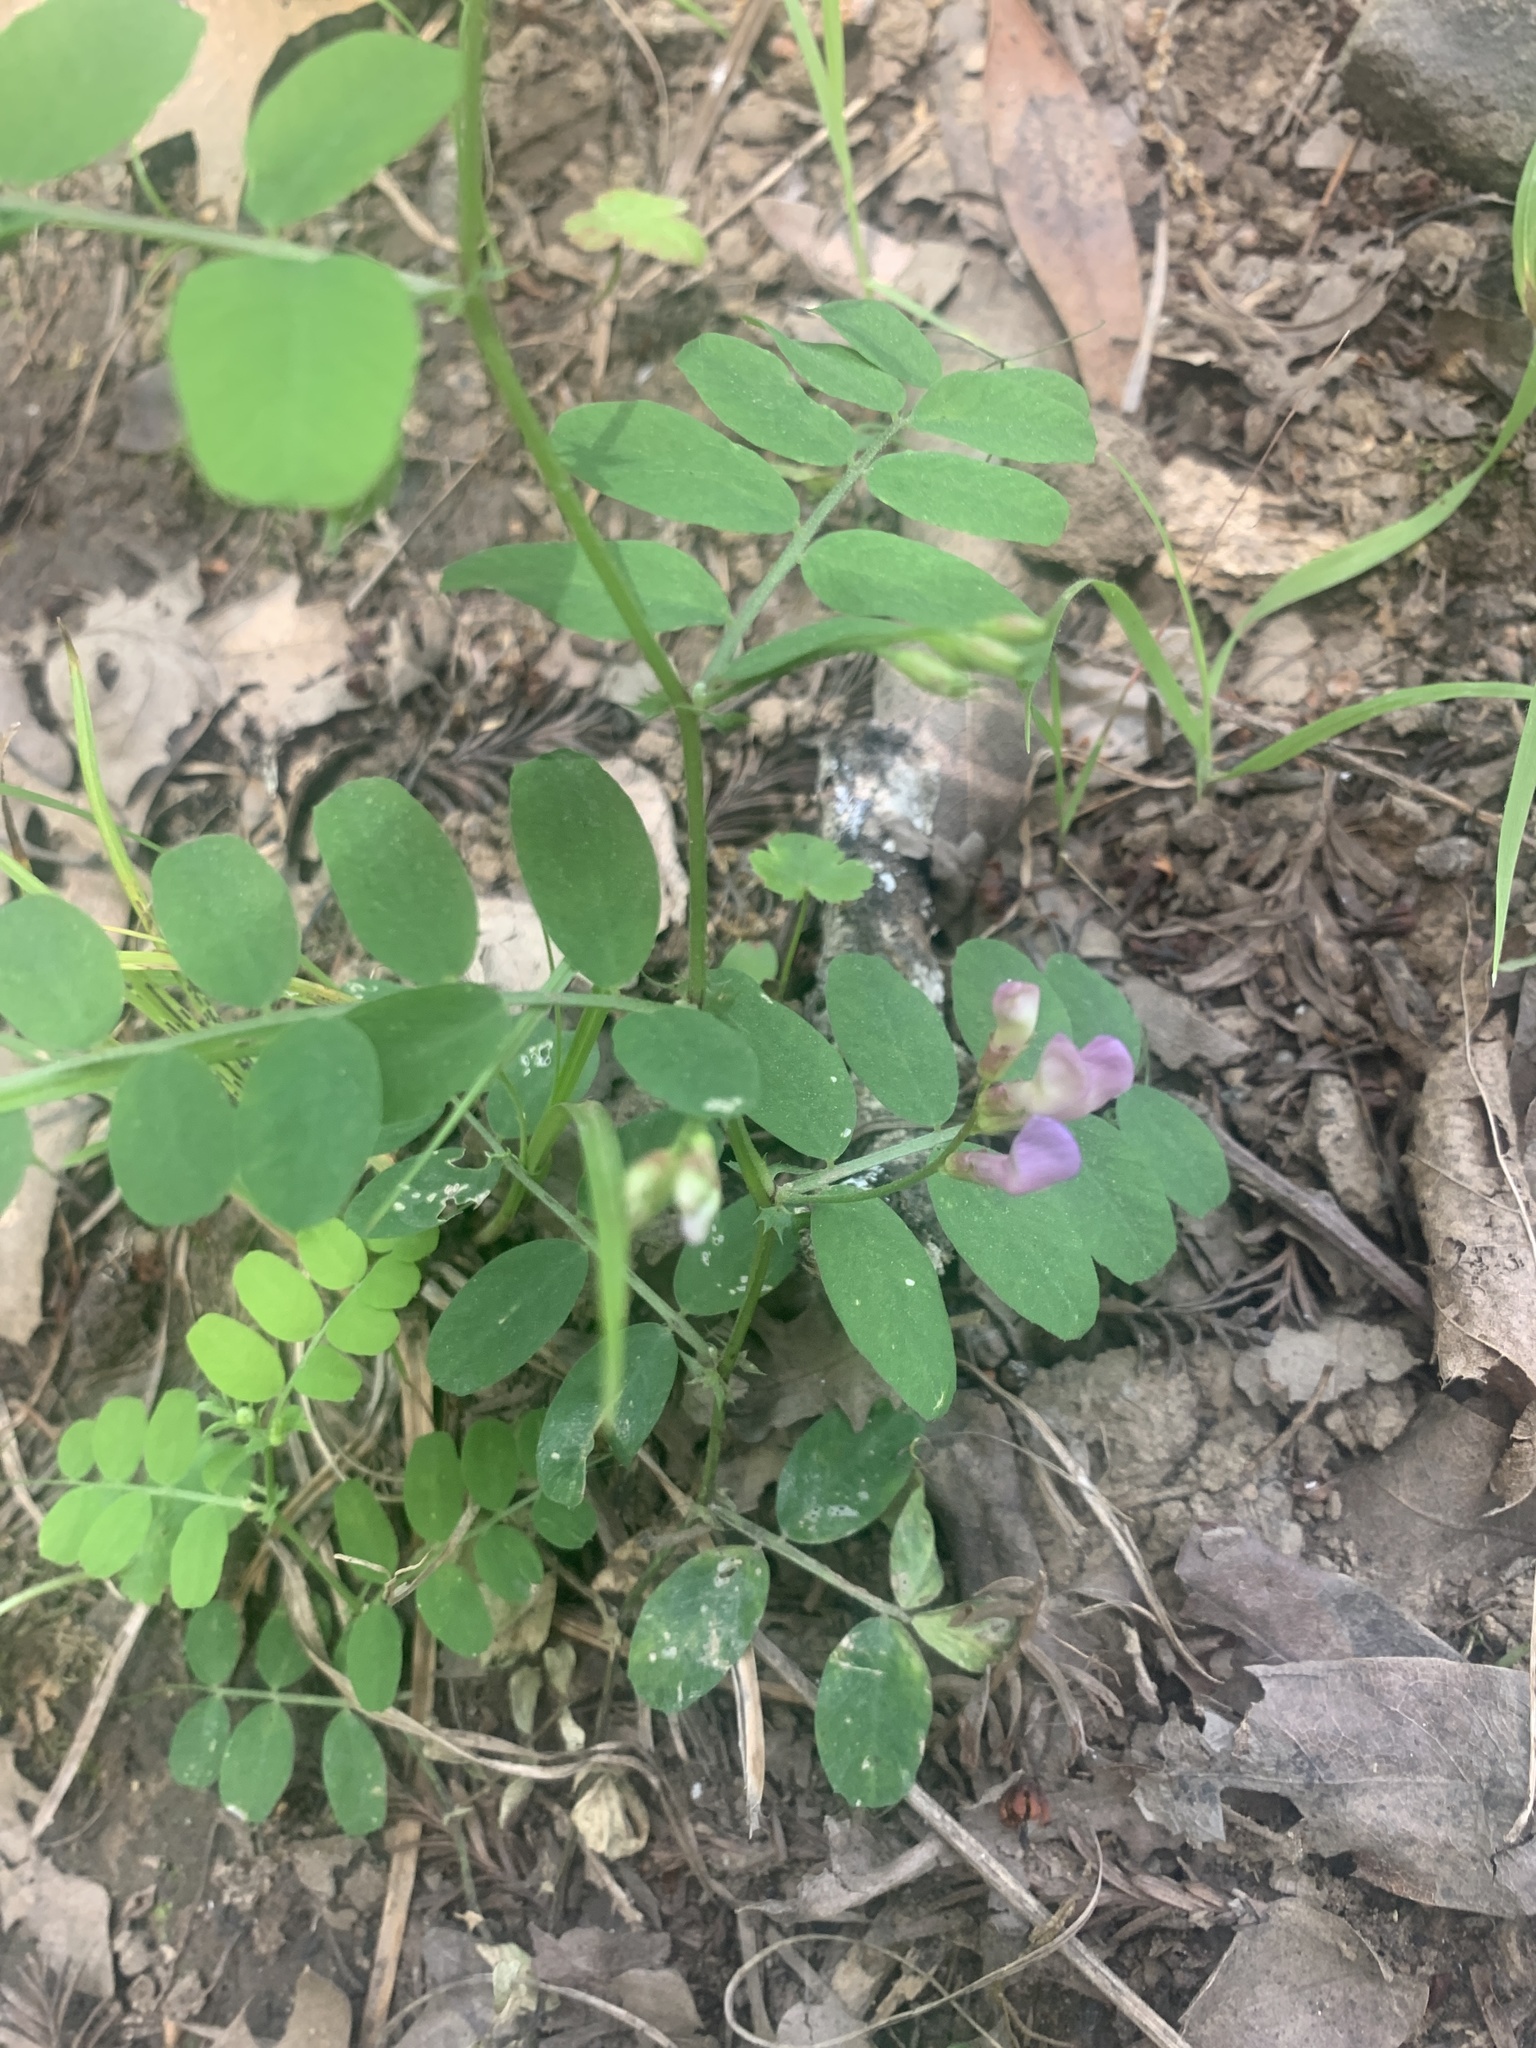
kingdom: Plantae
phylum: Tracheophyta
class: Magnoliopsida
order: Fabales
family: Fabaceae
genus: Vicia
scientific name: Vicia americana
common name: American vetch
